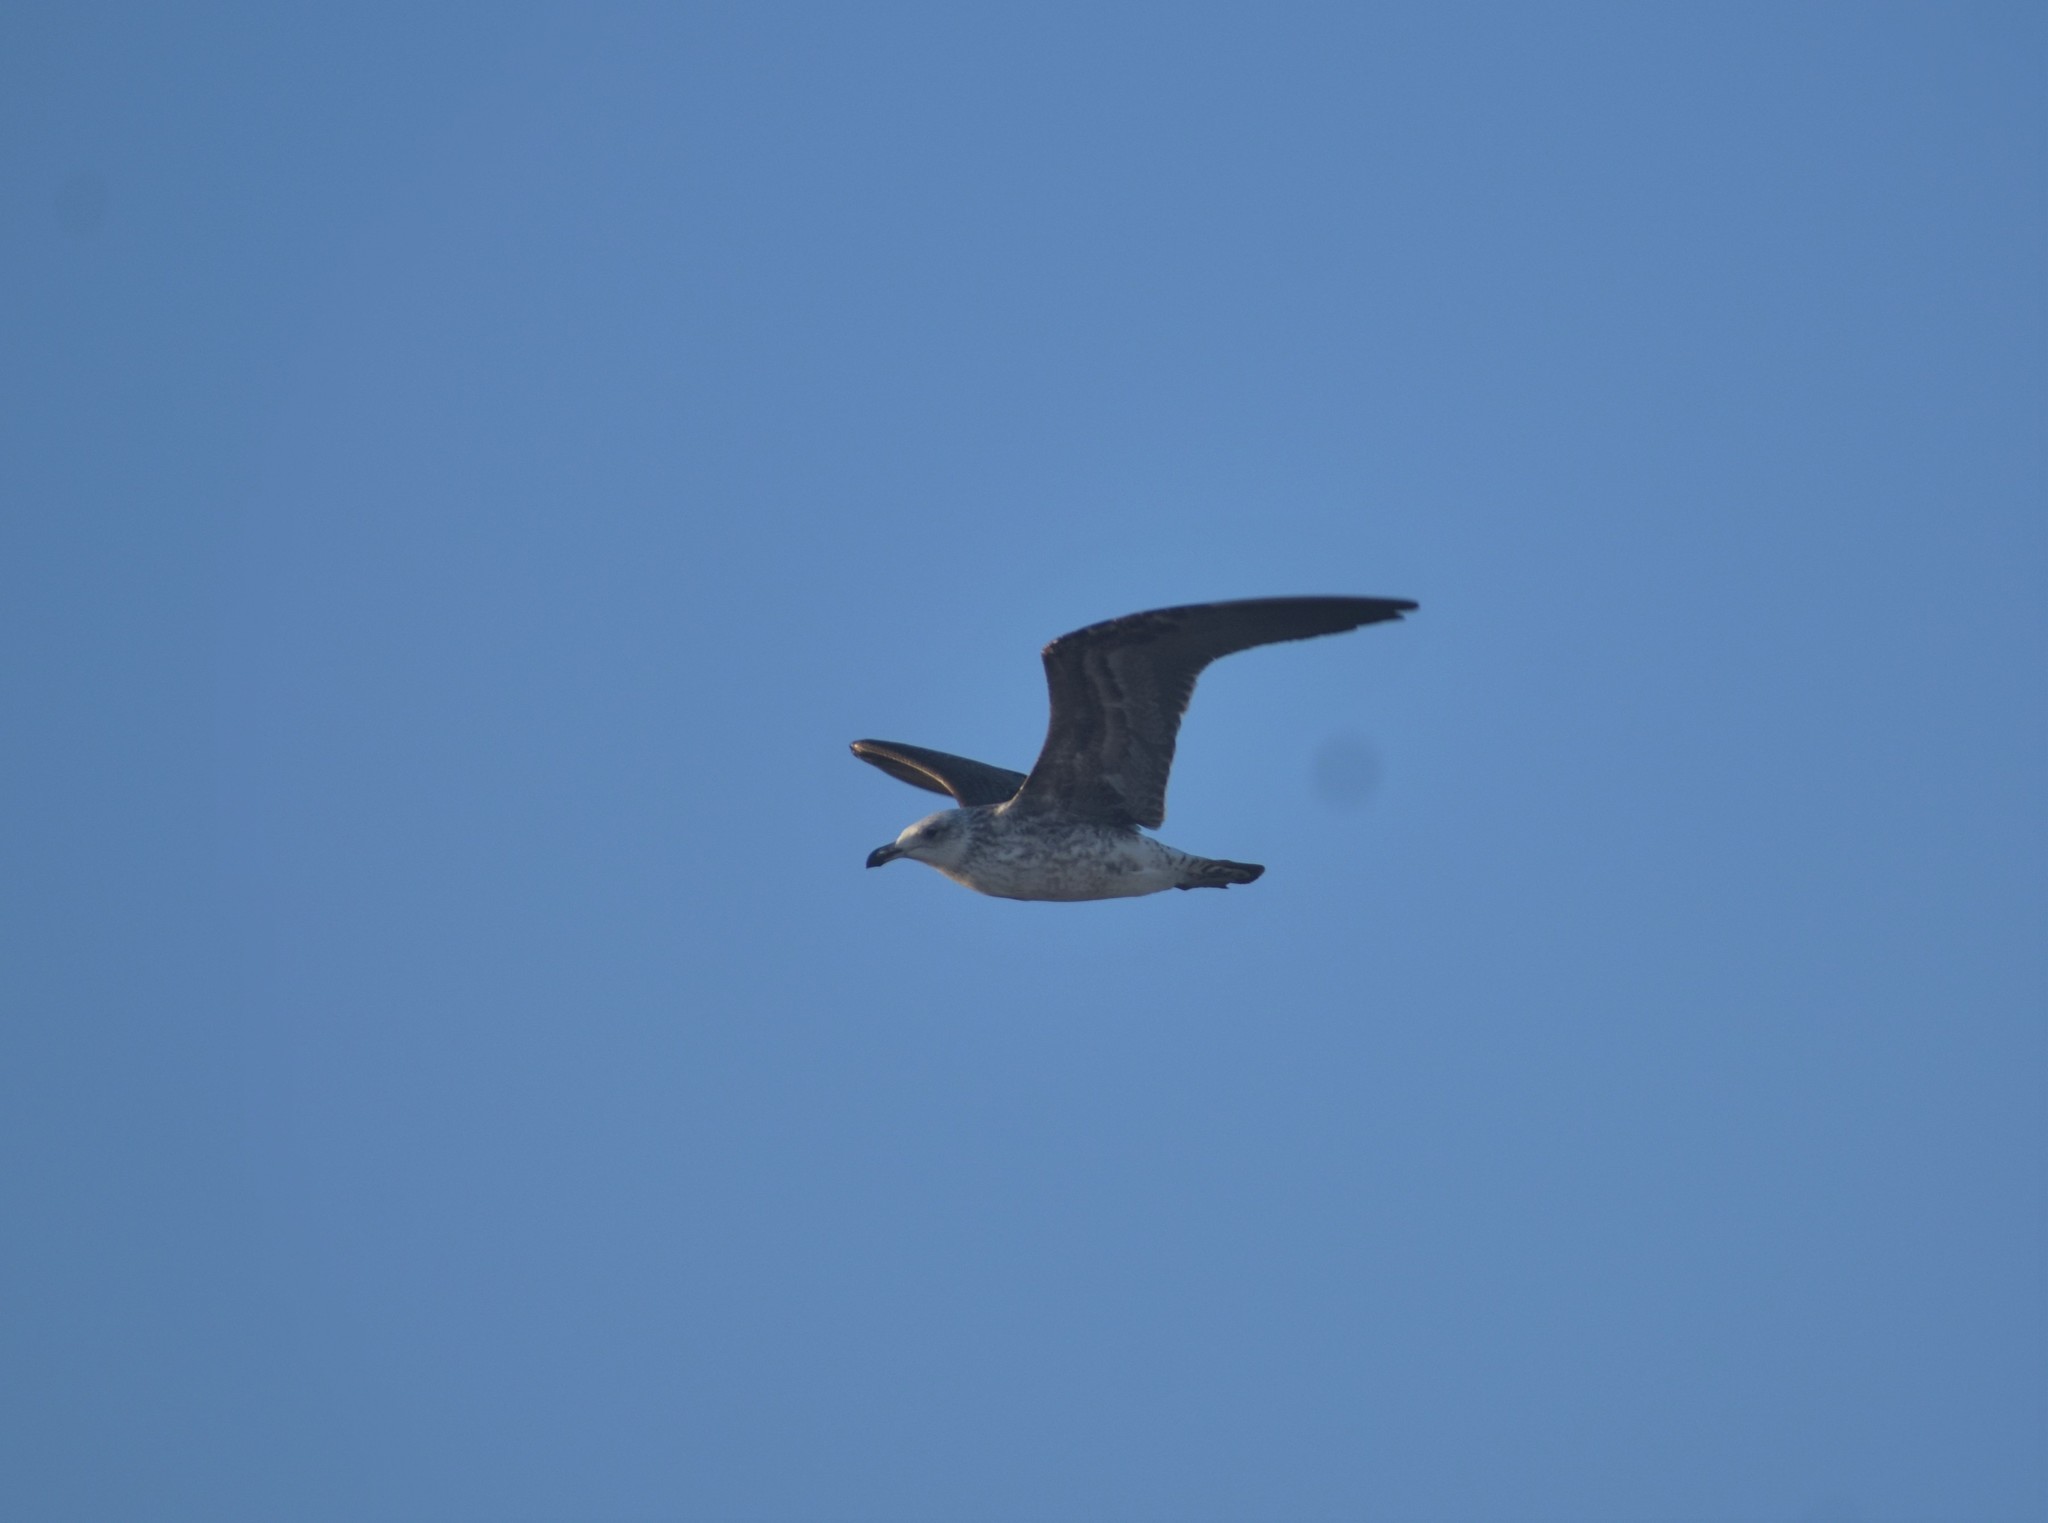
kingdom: Animalia
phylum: Chordata
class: Aves
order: Charadriiformes
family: Laridae
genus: Larus
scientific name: Larus dominicanus
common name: Kelp gull
